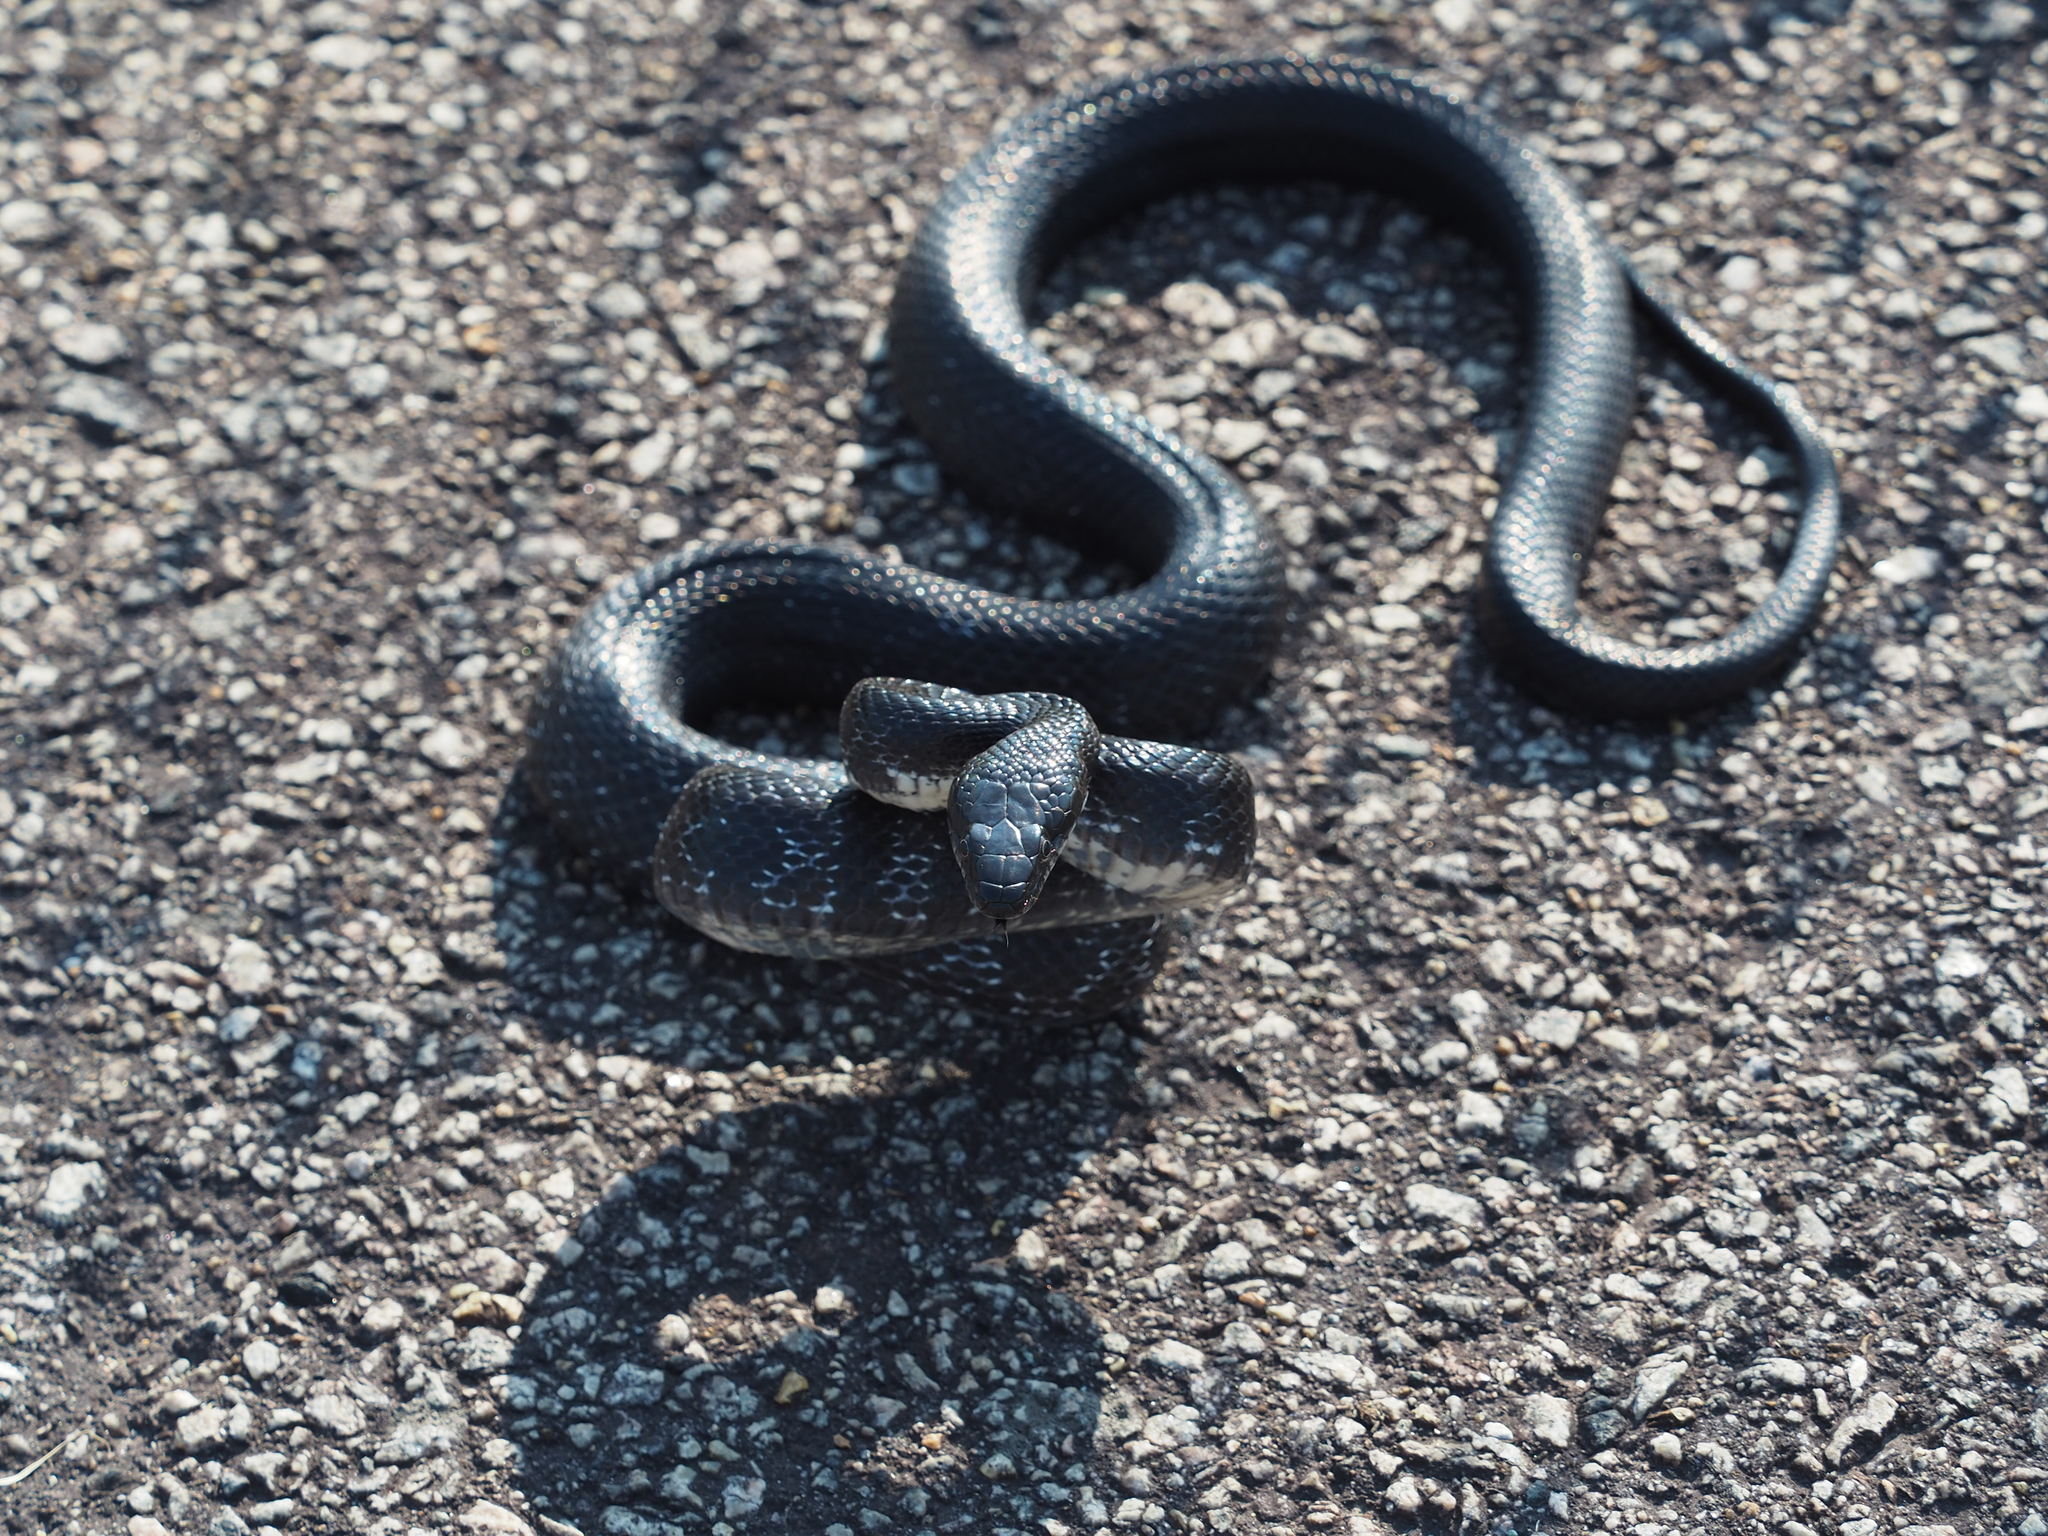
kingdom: Animalia
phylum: Chordata
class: Squamata
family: Colubridae
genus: Pantherophis
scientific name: Pantherophis alleghaniensis
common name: Eastern rat snake
